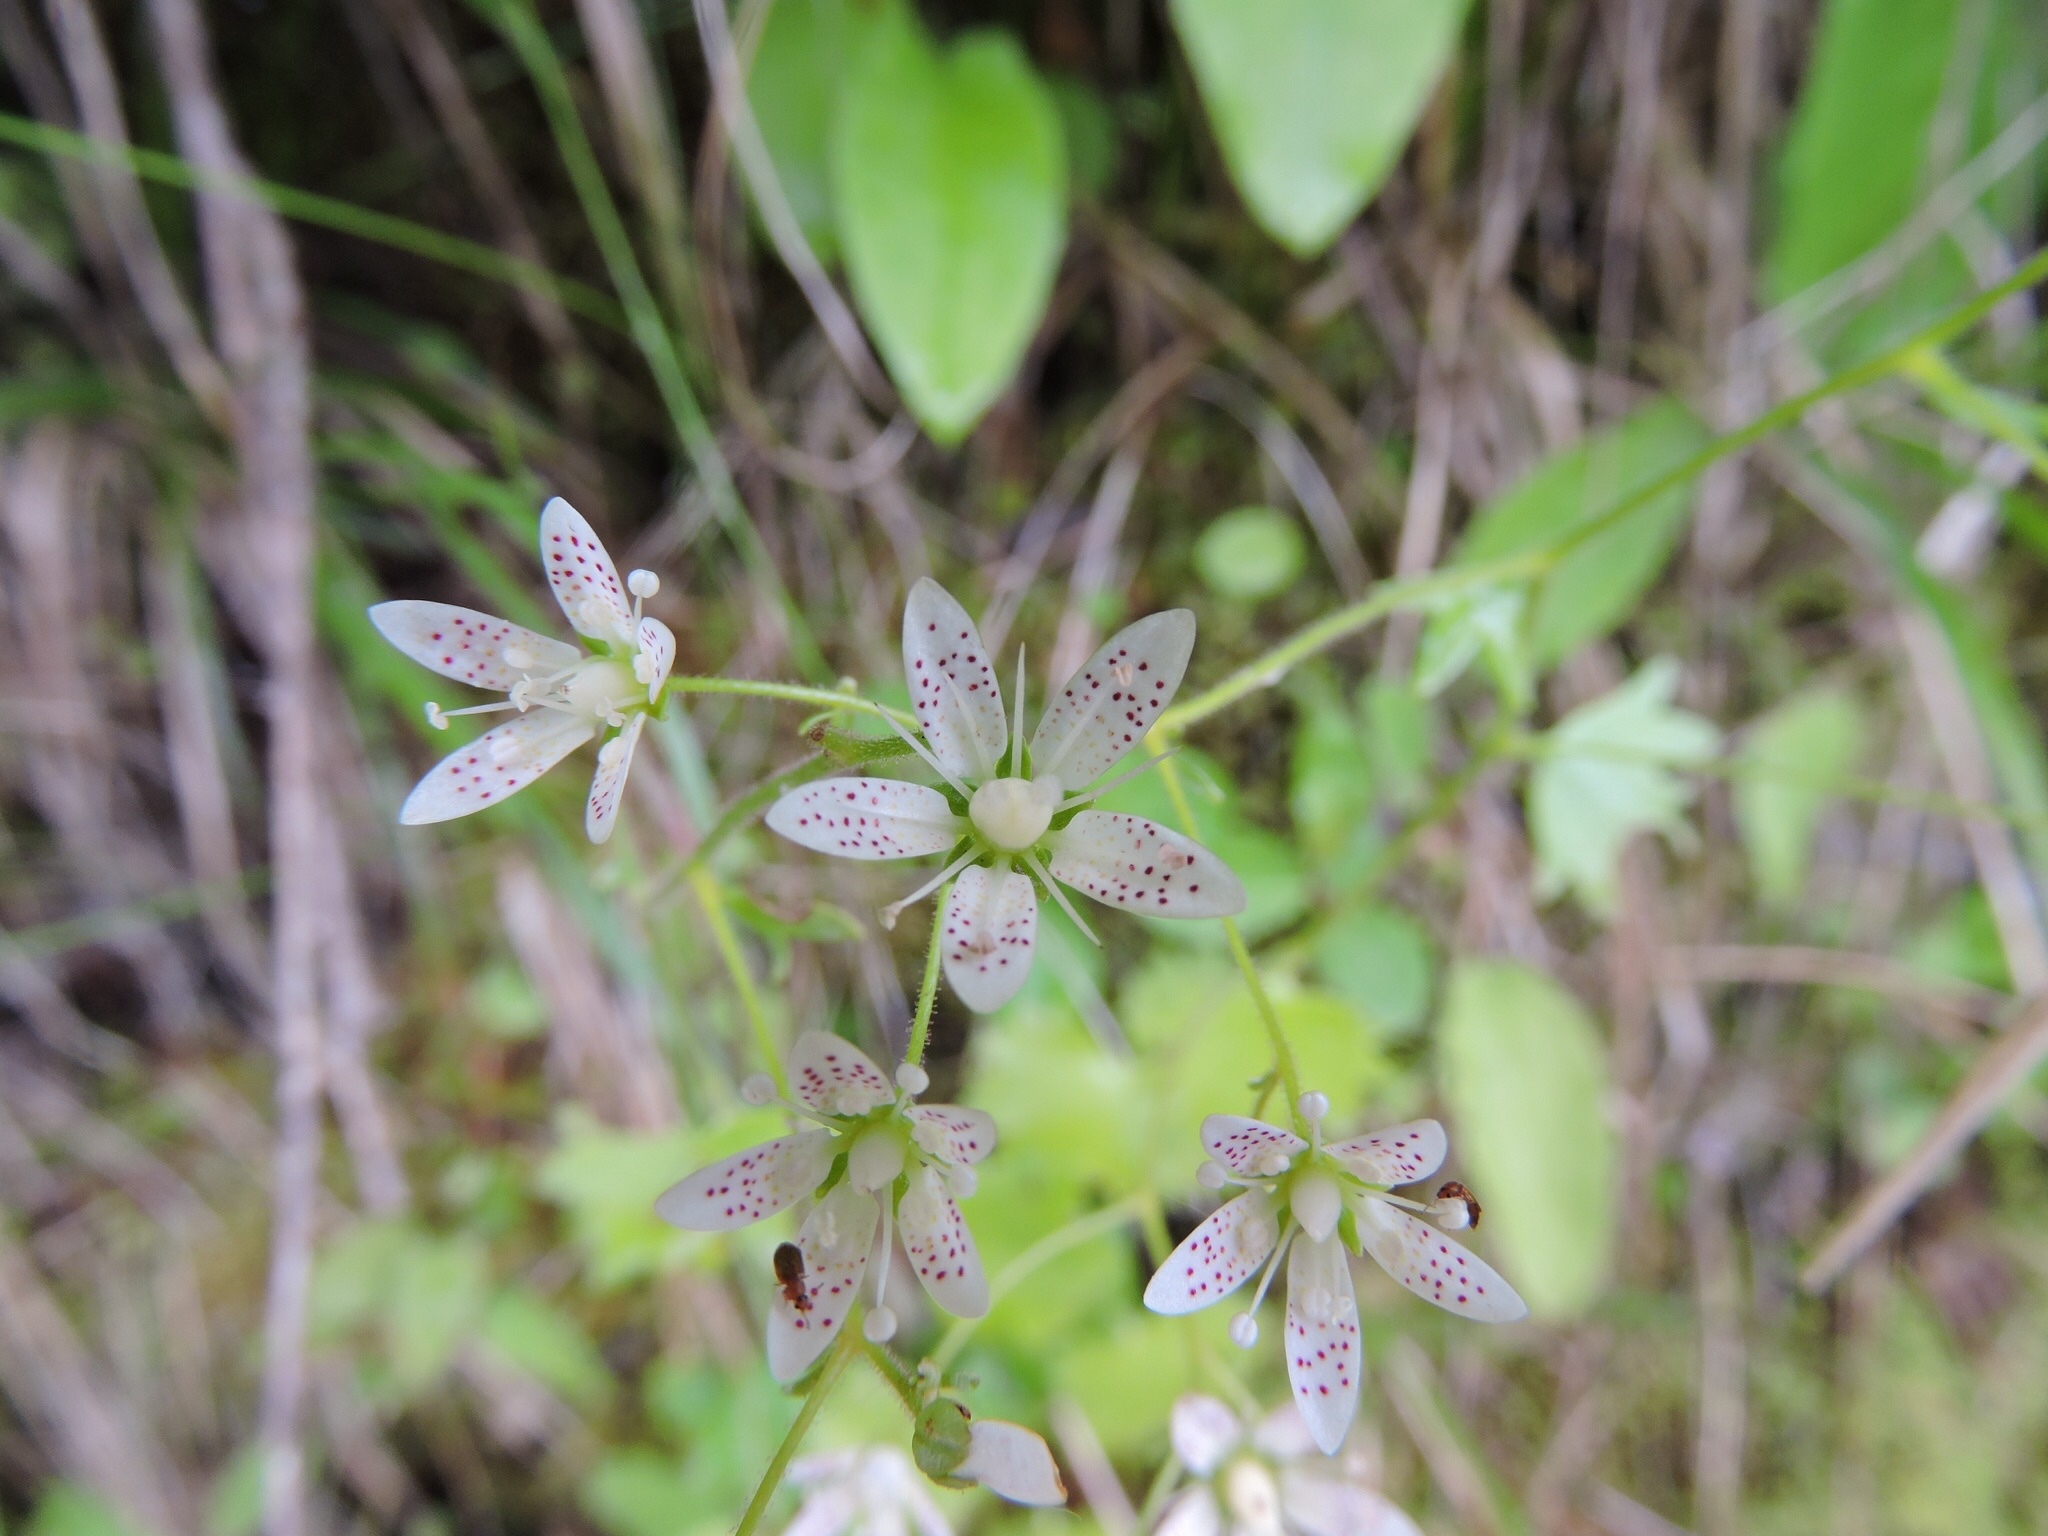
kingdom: Plantae
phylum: Tracheophyta
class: Magnoliopsida
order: Saxifragales
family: Saxifragaceae
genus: Saxifraga
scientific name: Saxifraga rotundifolia
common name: Round-leaved saxifrage
